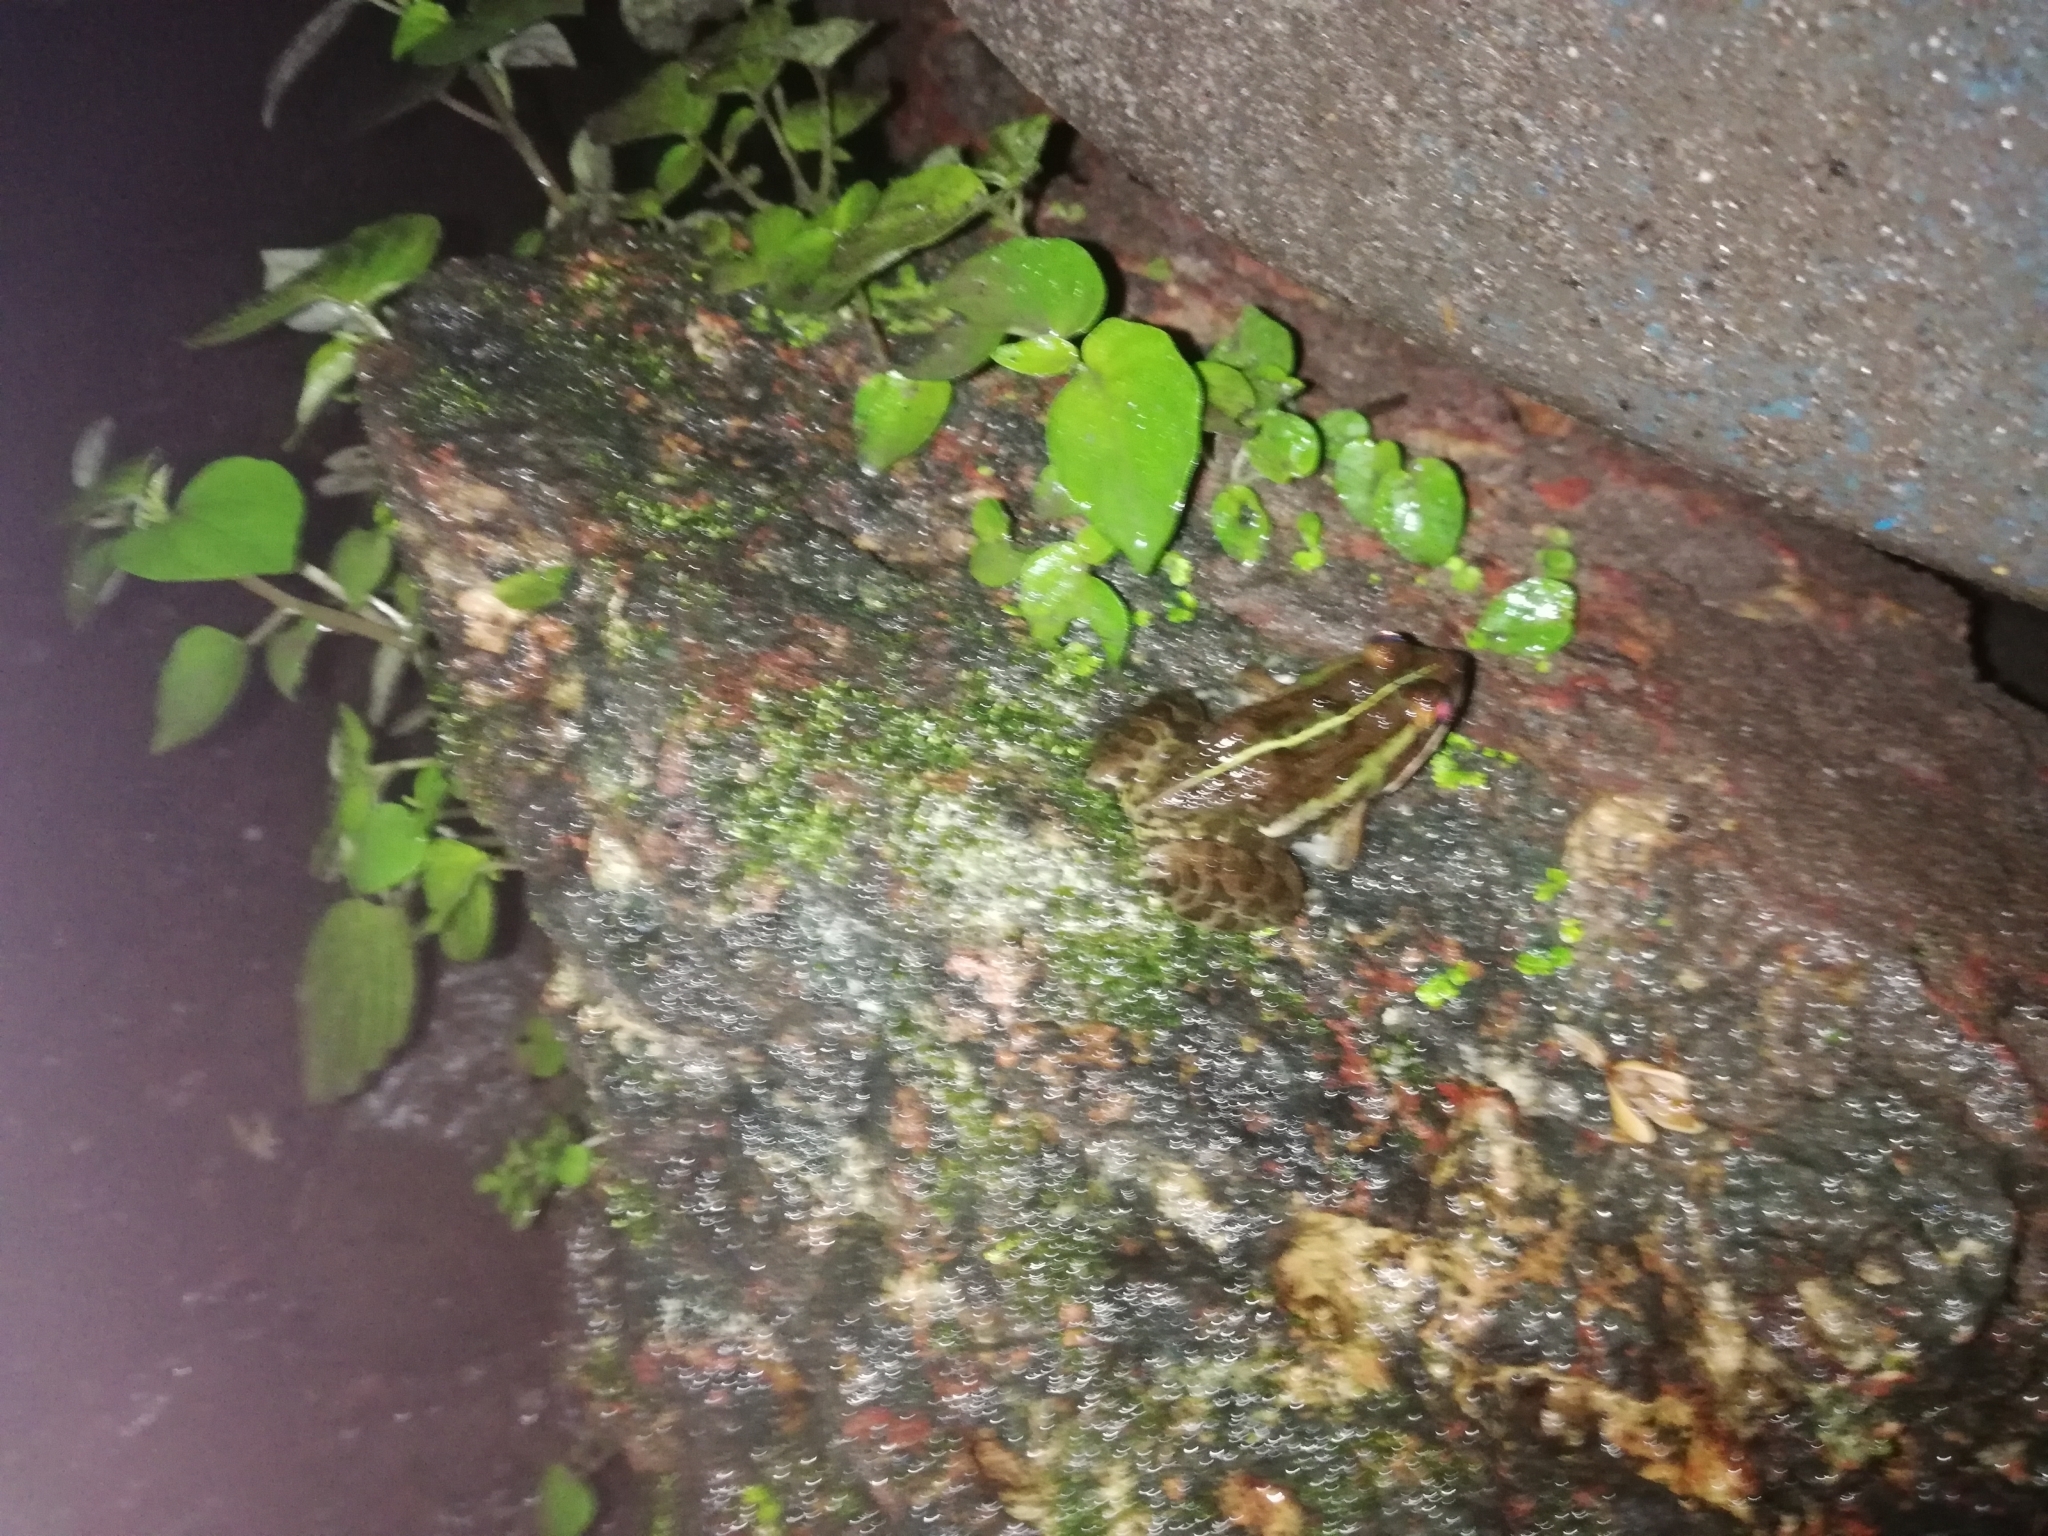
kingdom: Animalia
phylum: Chordata
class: Amphibia
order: Anura
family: Dicroglossidae
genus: Hoplobatrachus
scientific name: Hoplobatrachus tigerinus
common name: Indian bullfrog
